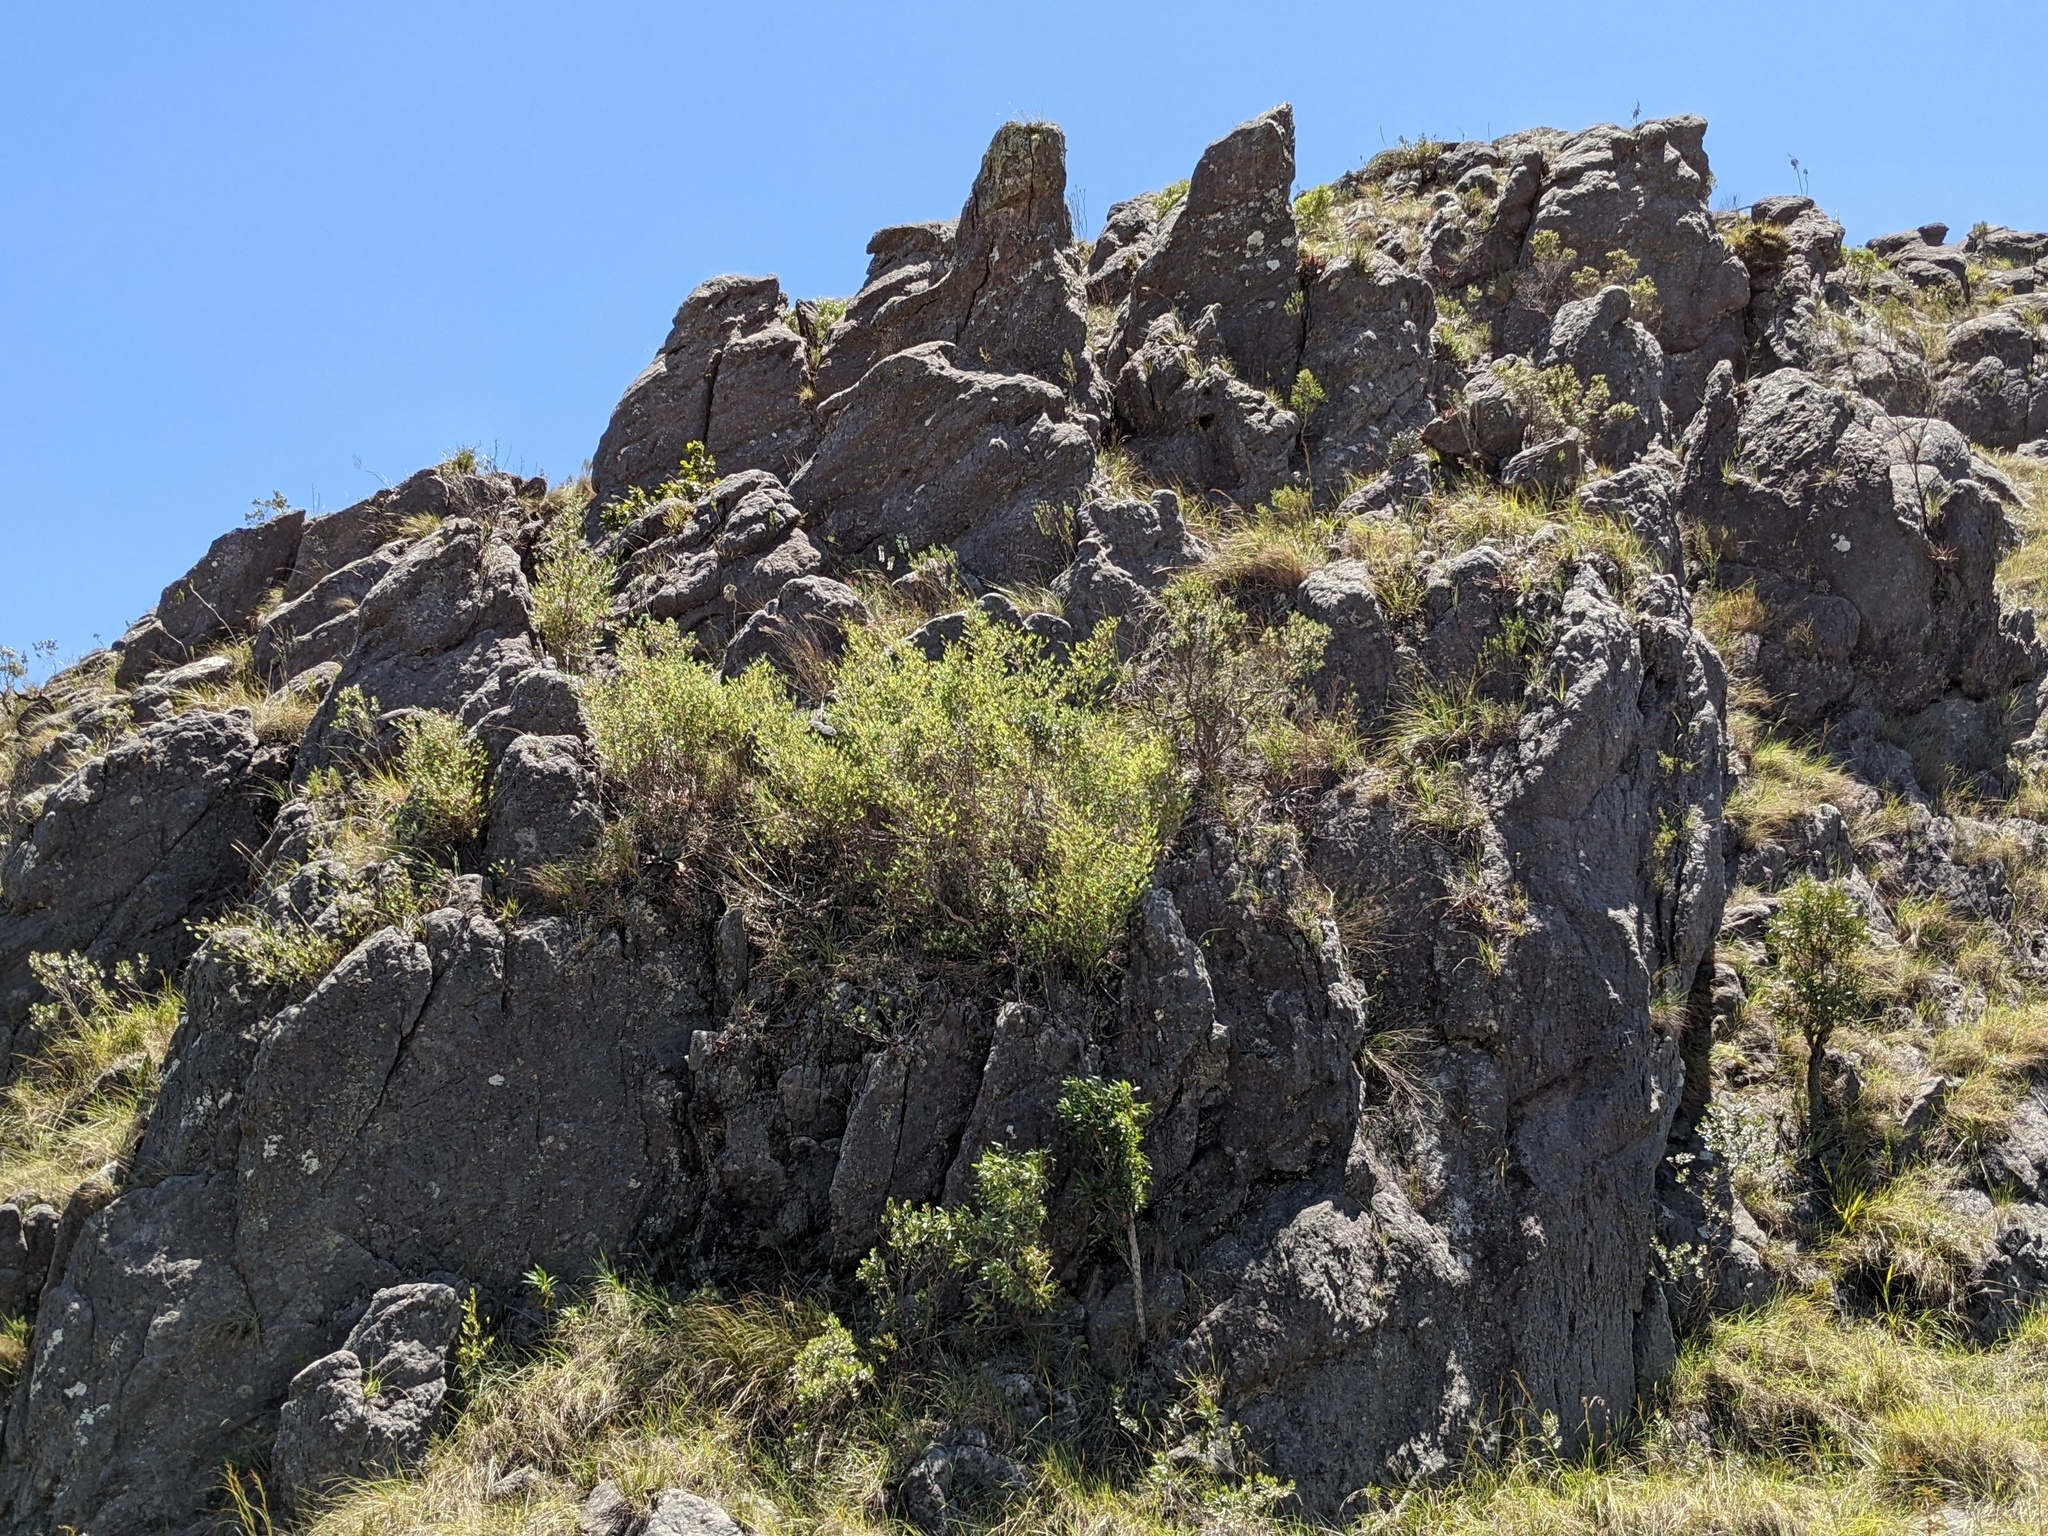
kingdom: Plantae
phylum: Tracheophyta
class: Liliopsida
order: Poales
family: Poaceae
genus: Oldeania
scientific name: Oldeania ibityensis
